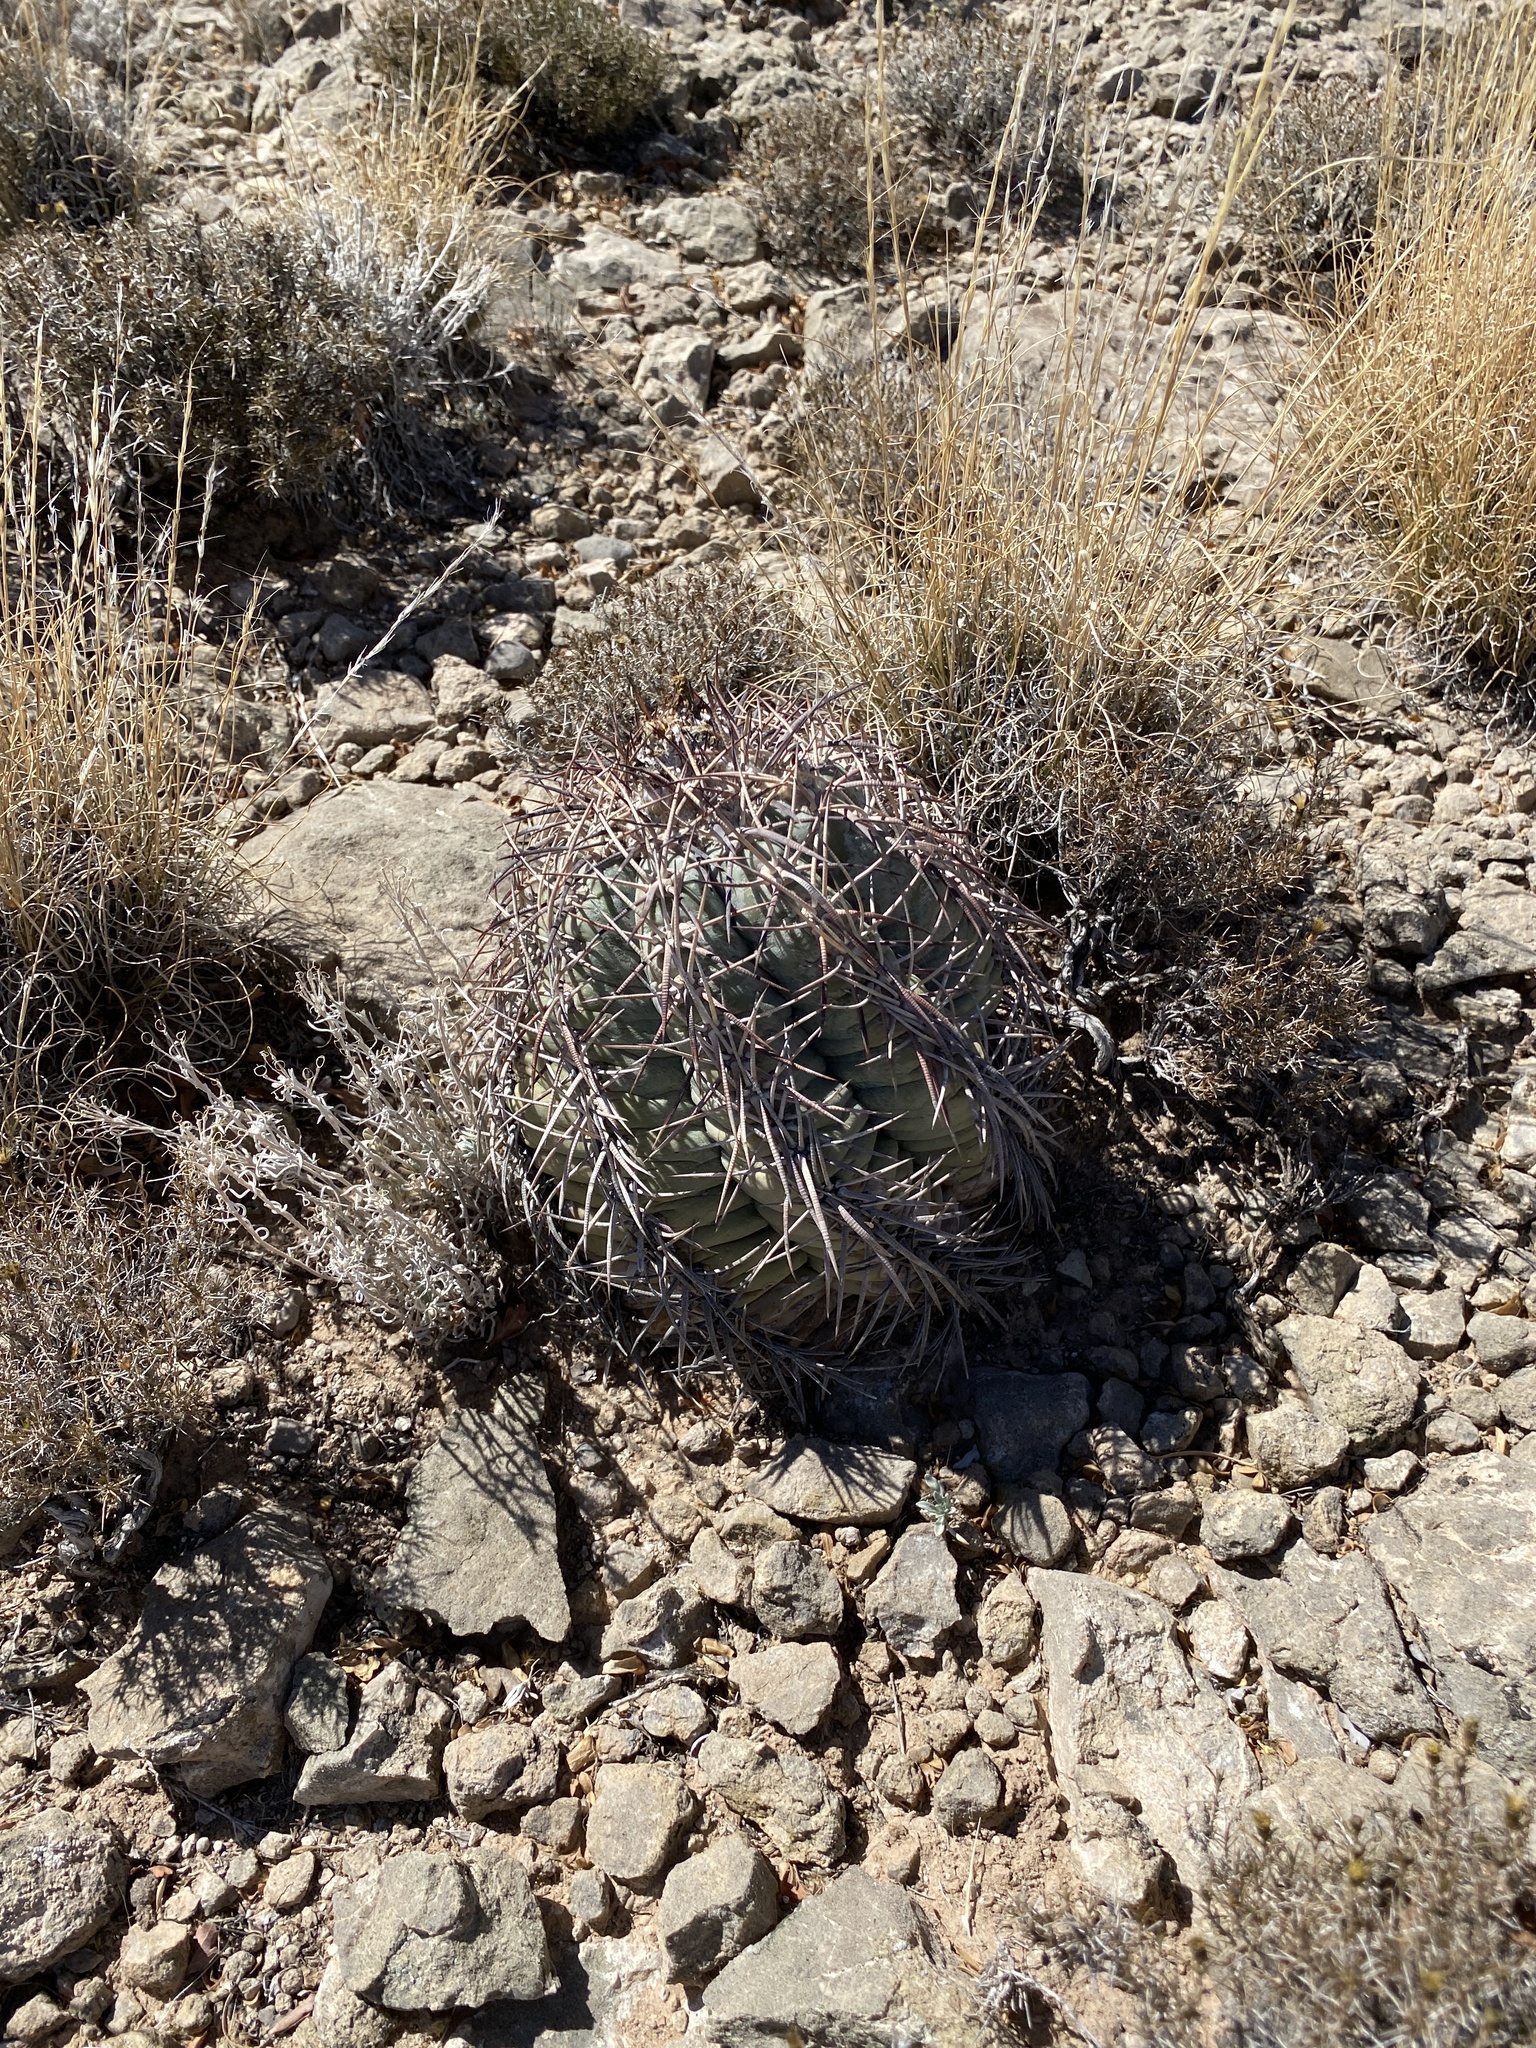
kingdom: Plantae
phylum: Tracheophyta
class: Magnoliopsida
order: Caryophyllales
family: Cactaceae
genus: Echinocactus
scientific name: Echinocactus horizonthalonius
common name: Devilshead
